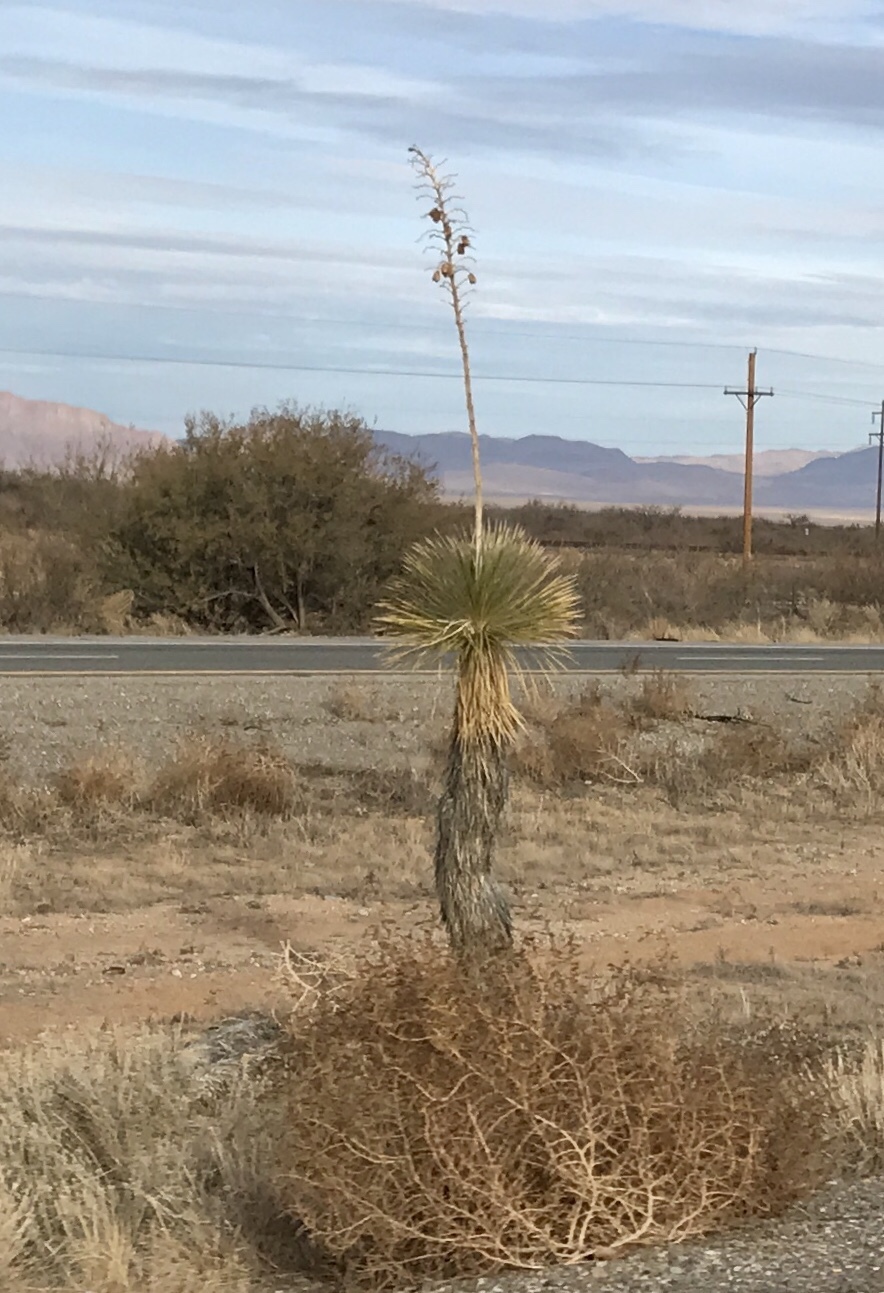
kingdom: Plantae
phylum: Tracheophyta
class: Liliopsida
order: Asparagales
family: Asparagaceae
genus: Yucca
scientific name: Yucca elata
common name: Palmella
